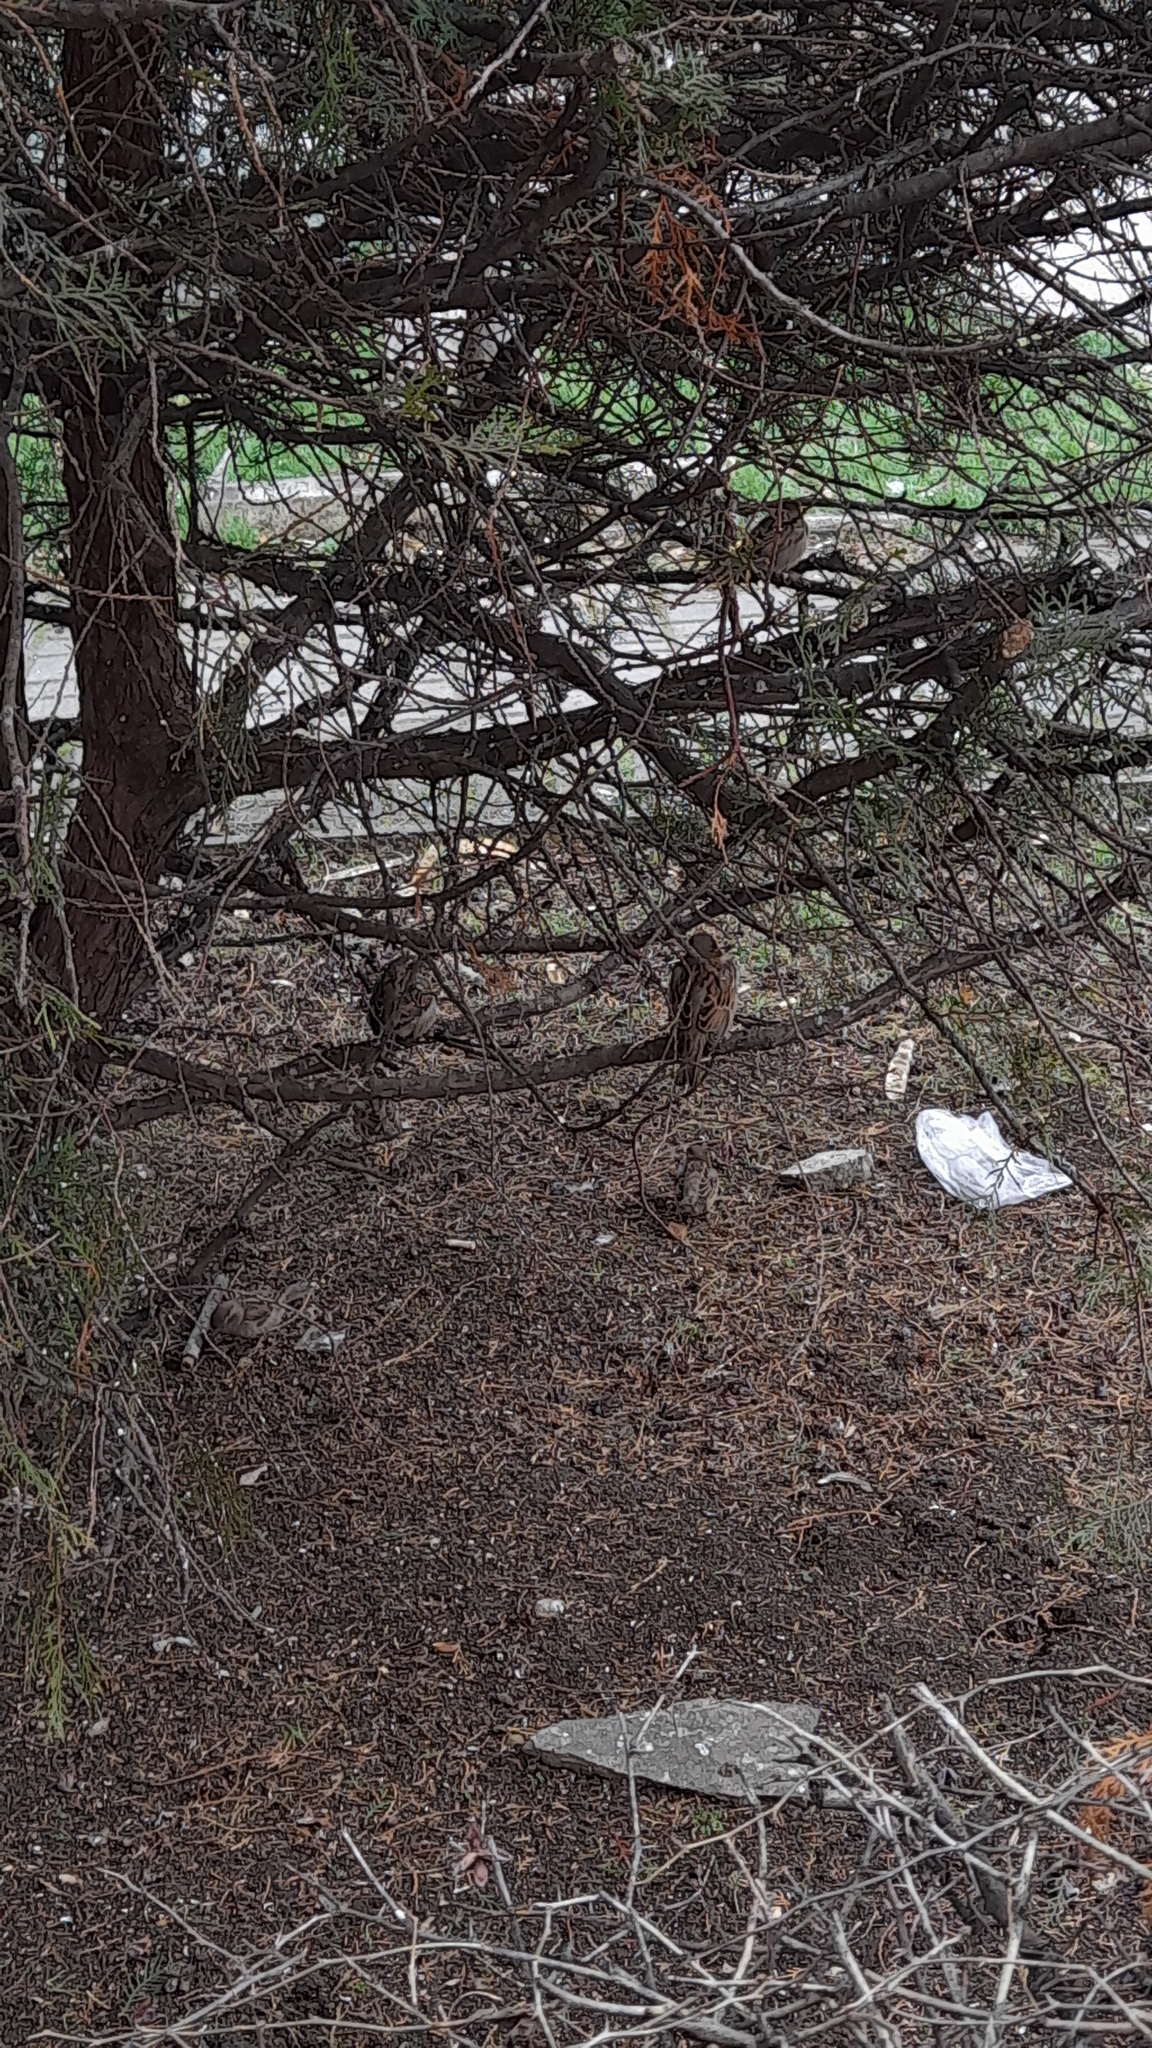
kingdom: Animalia
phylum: Chordata
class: Aves
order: Passeriformes
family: Passeridae
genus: Passer
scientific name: Passer domesticus
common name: House sparrow
